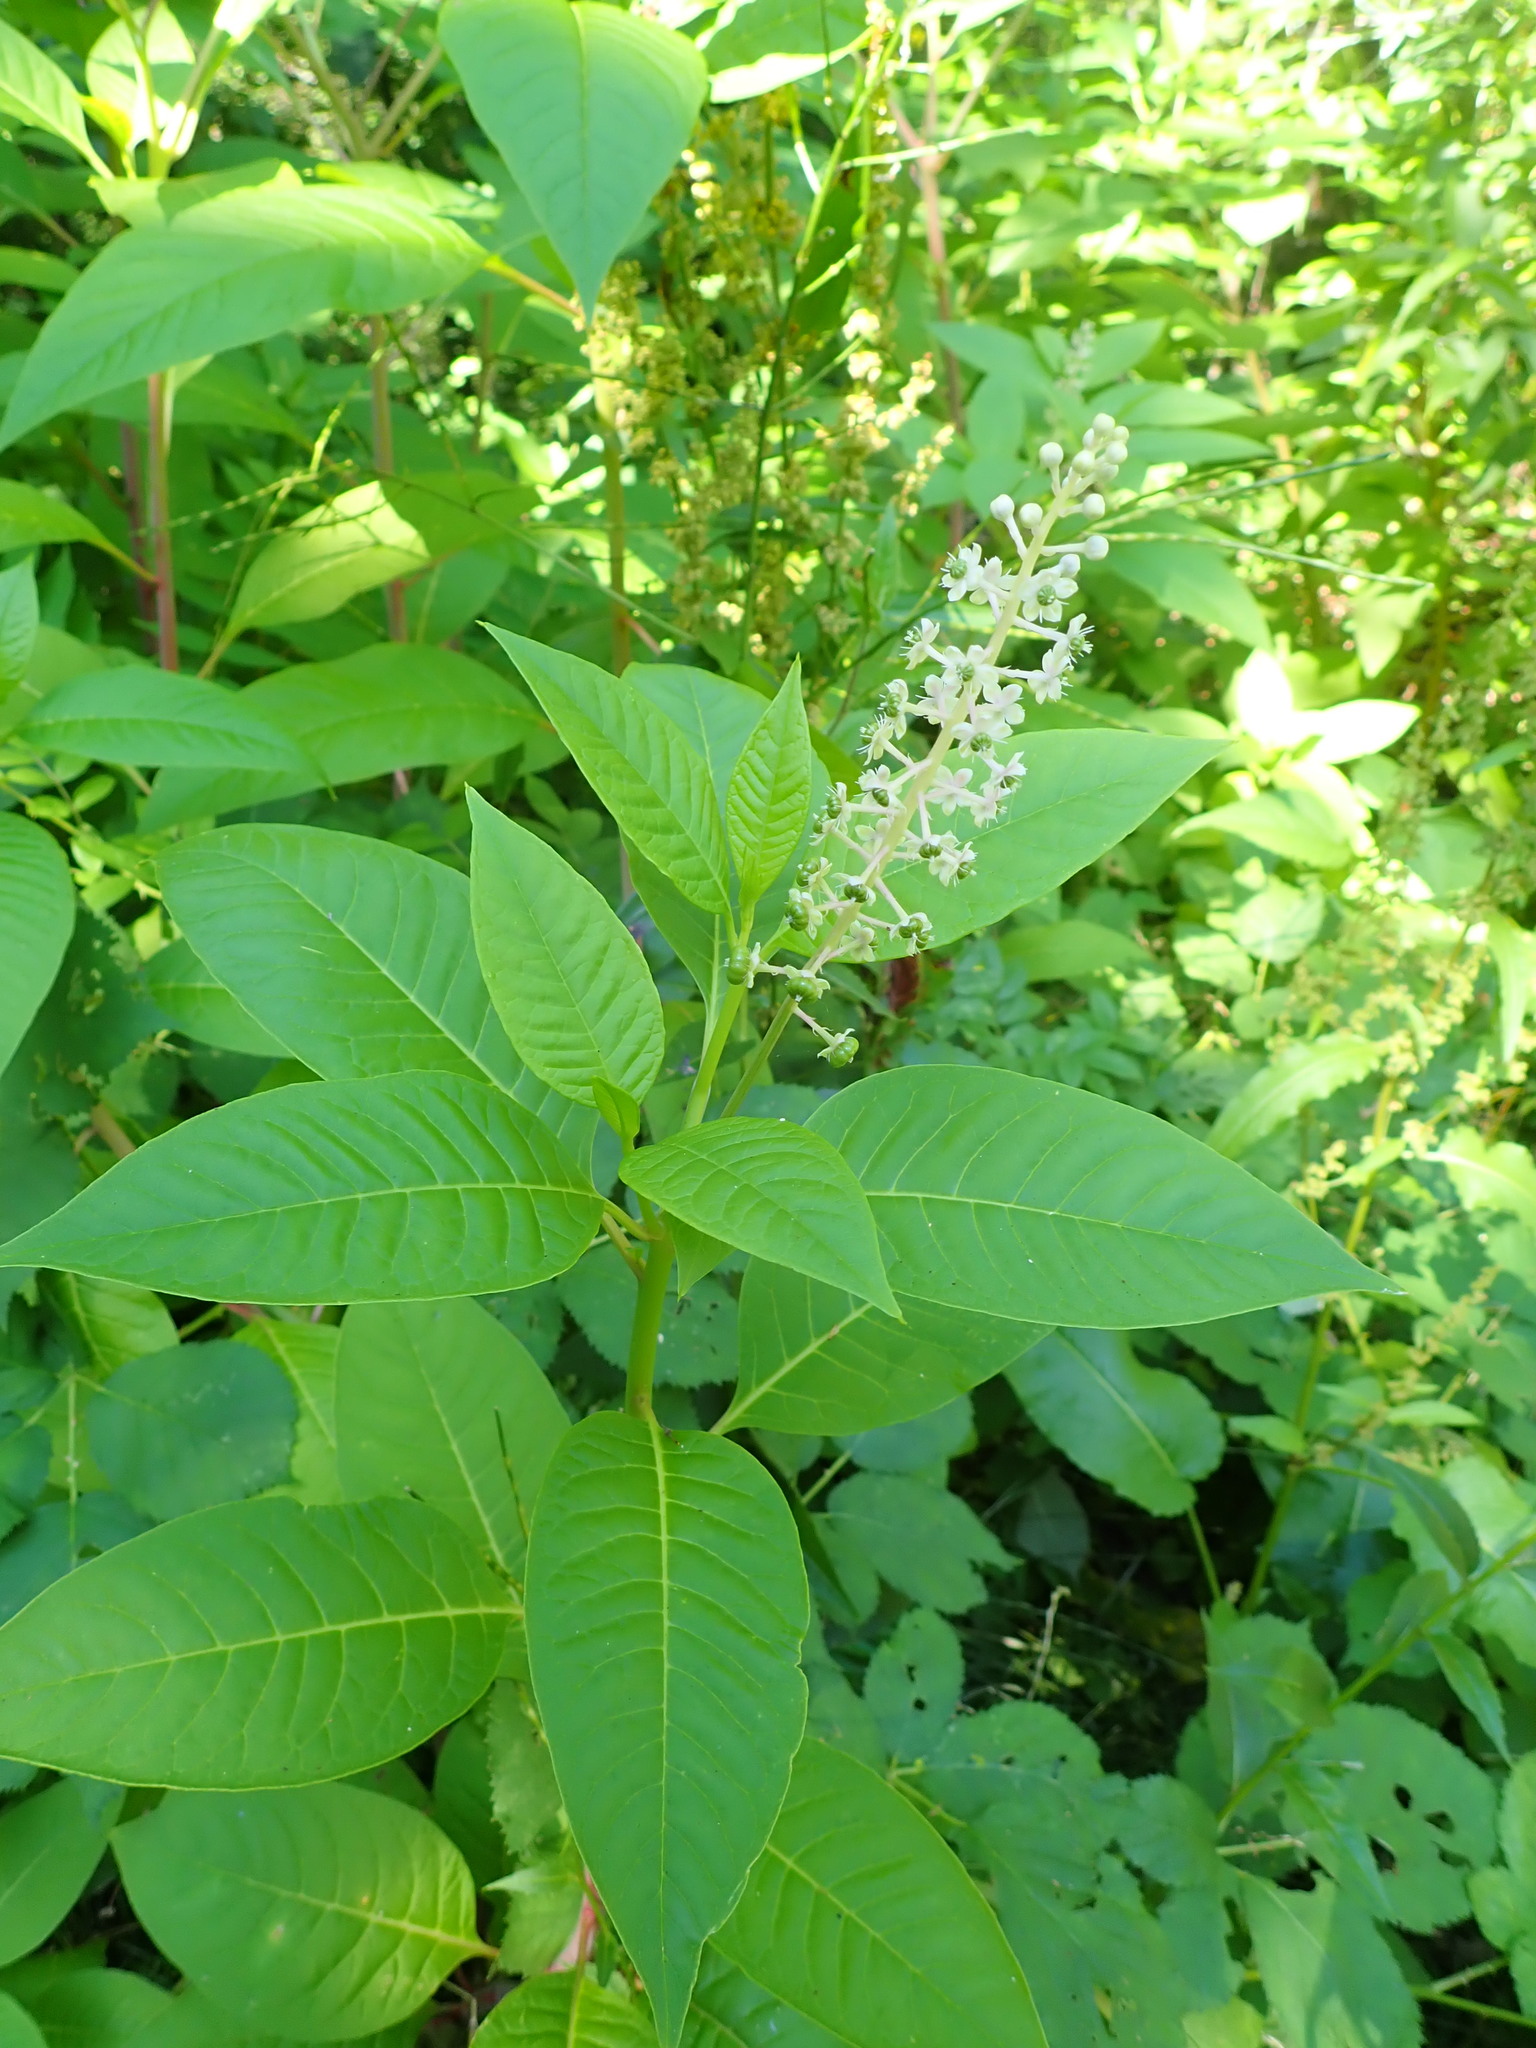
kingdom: Plantae
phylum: Tracheophyta
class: Magnoliopsida
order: Caryophyllales
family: Phytolaccaceae
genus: Phytolacca
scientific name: Phytolacca americana
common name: American pokeweed
